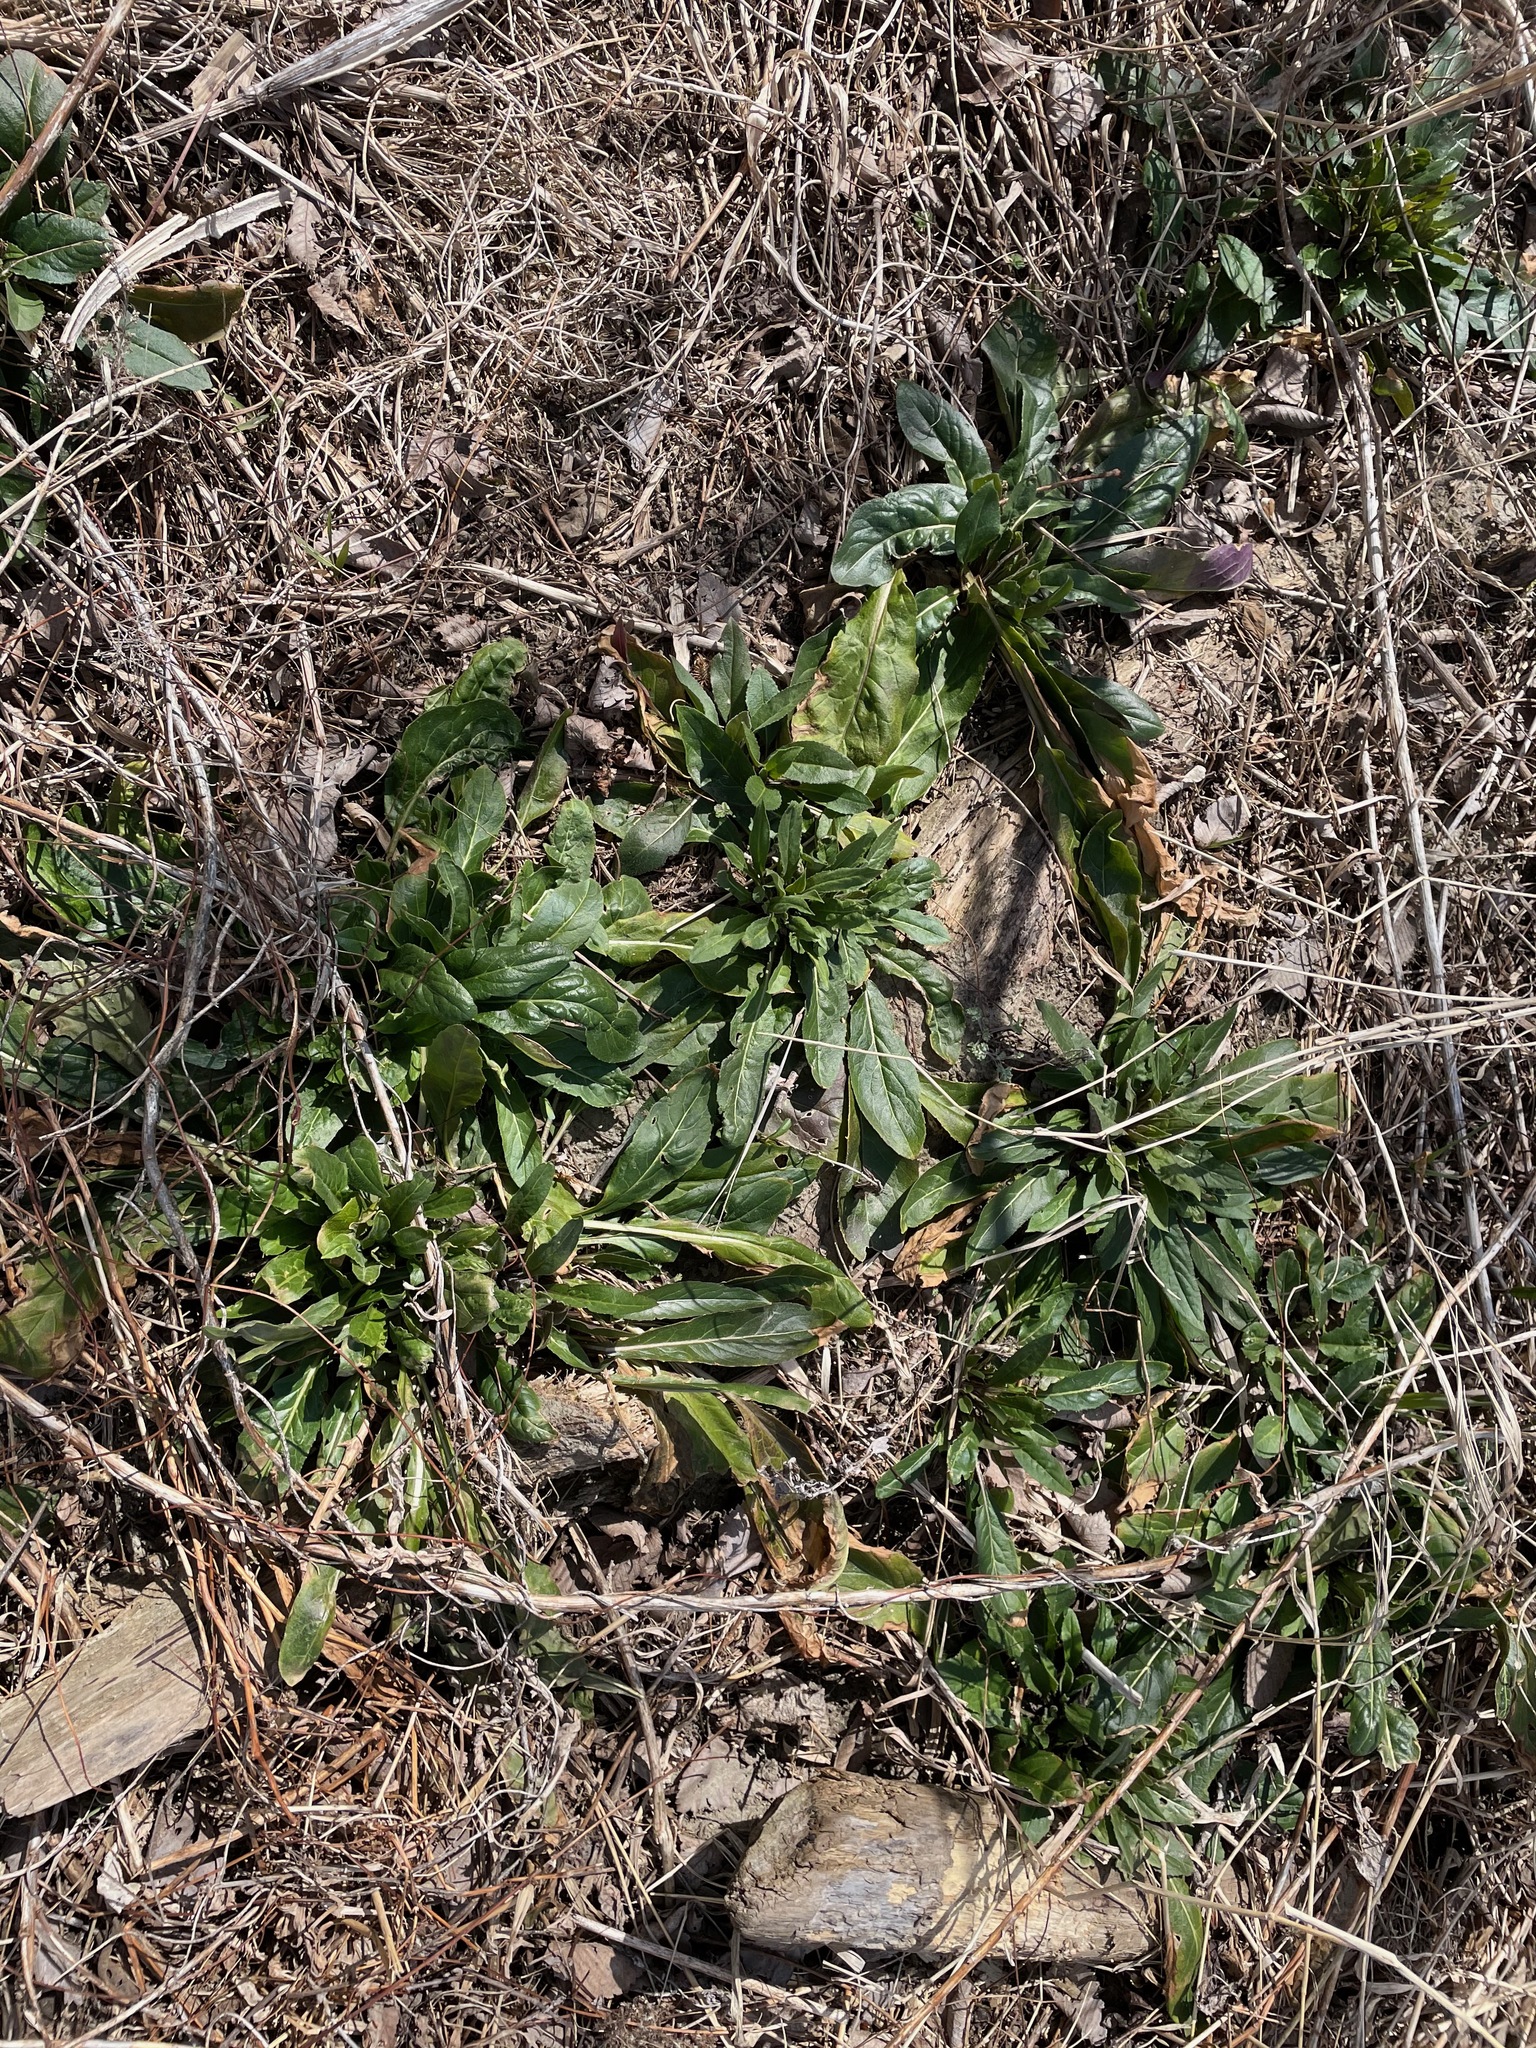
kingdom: Plantae
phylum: Tracheophyta
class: Magnoliopsida
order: Brassicales
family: Brassicaceae
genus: Hesperis
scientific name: Hesperis matronalis
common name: Dame's-violet
